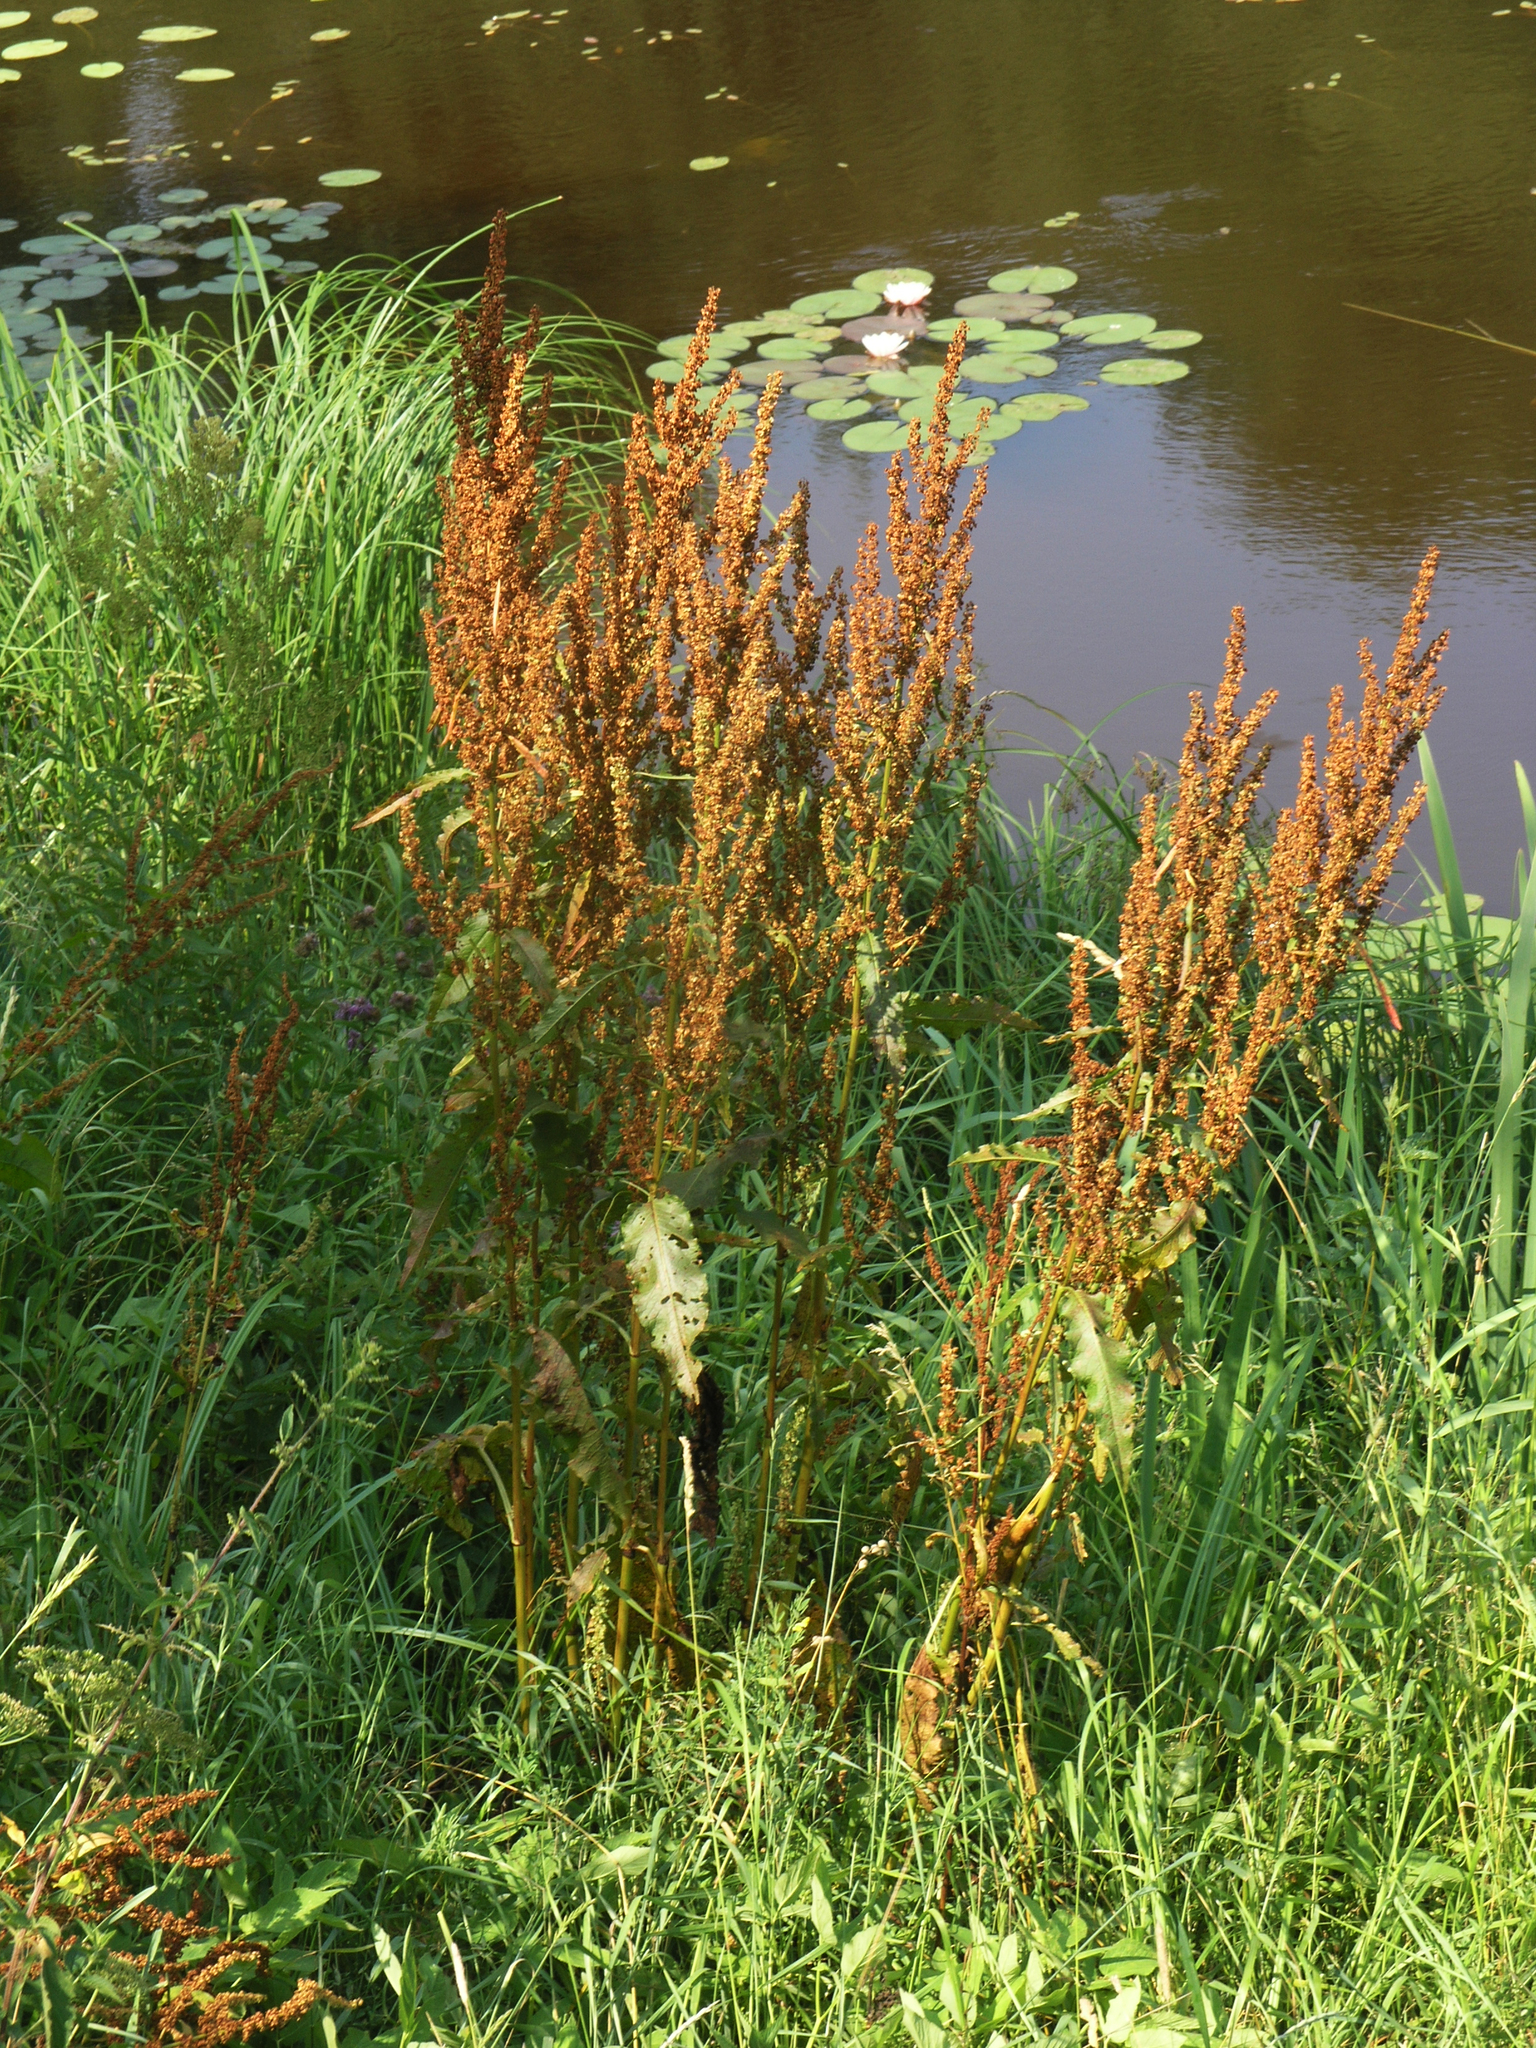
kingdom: Plantae
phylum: Tracheophyta
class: Magnoliopsida
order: Caryophyllales
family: Polygonaceae
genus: Rumex
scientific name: Rumex aquaticus
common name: Scottish dock
